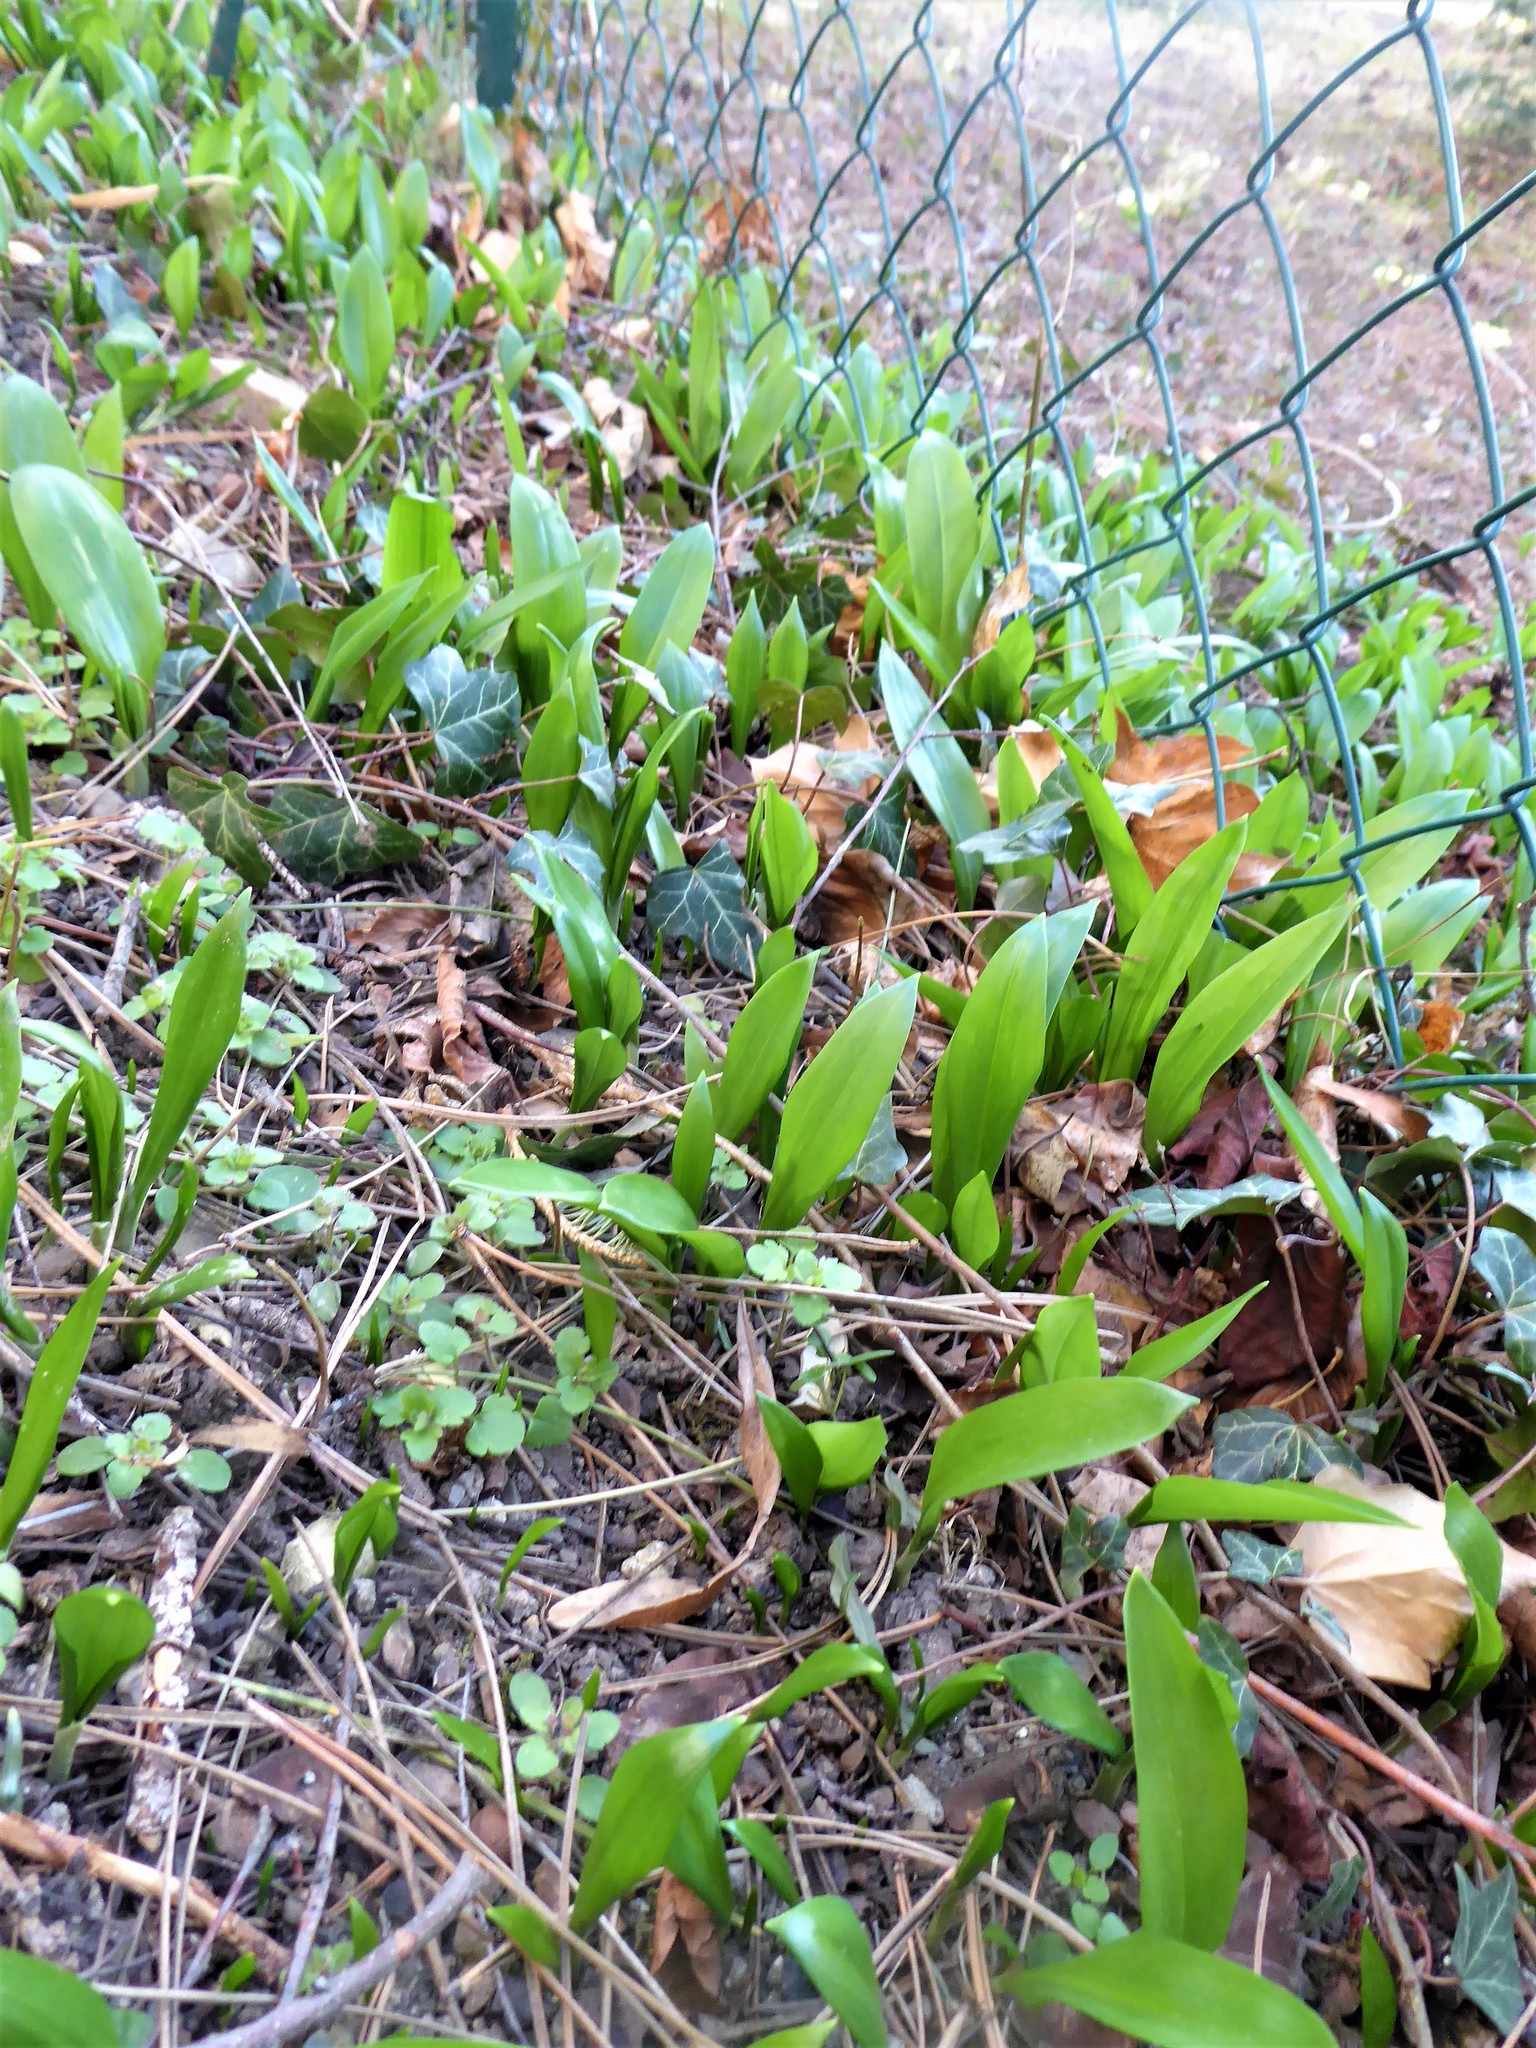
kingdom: Plantae
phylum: Tracheophyta
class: Liliopsida
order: Asparagales
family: Amaryllidaceae
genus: Allium
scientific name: Allium ursinum
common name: Ramsons
